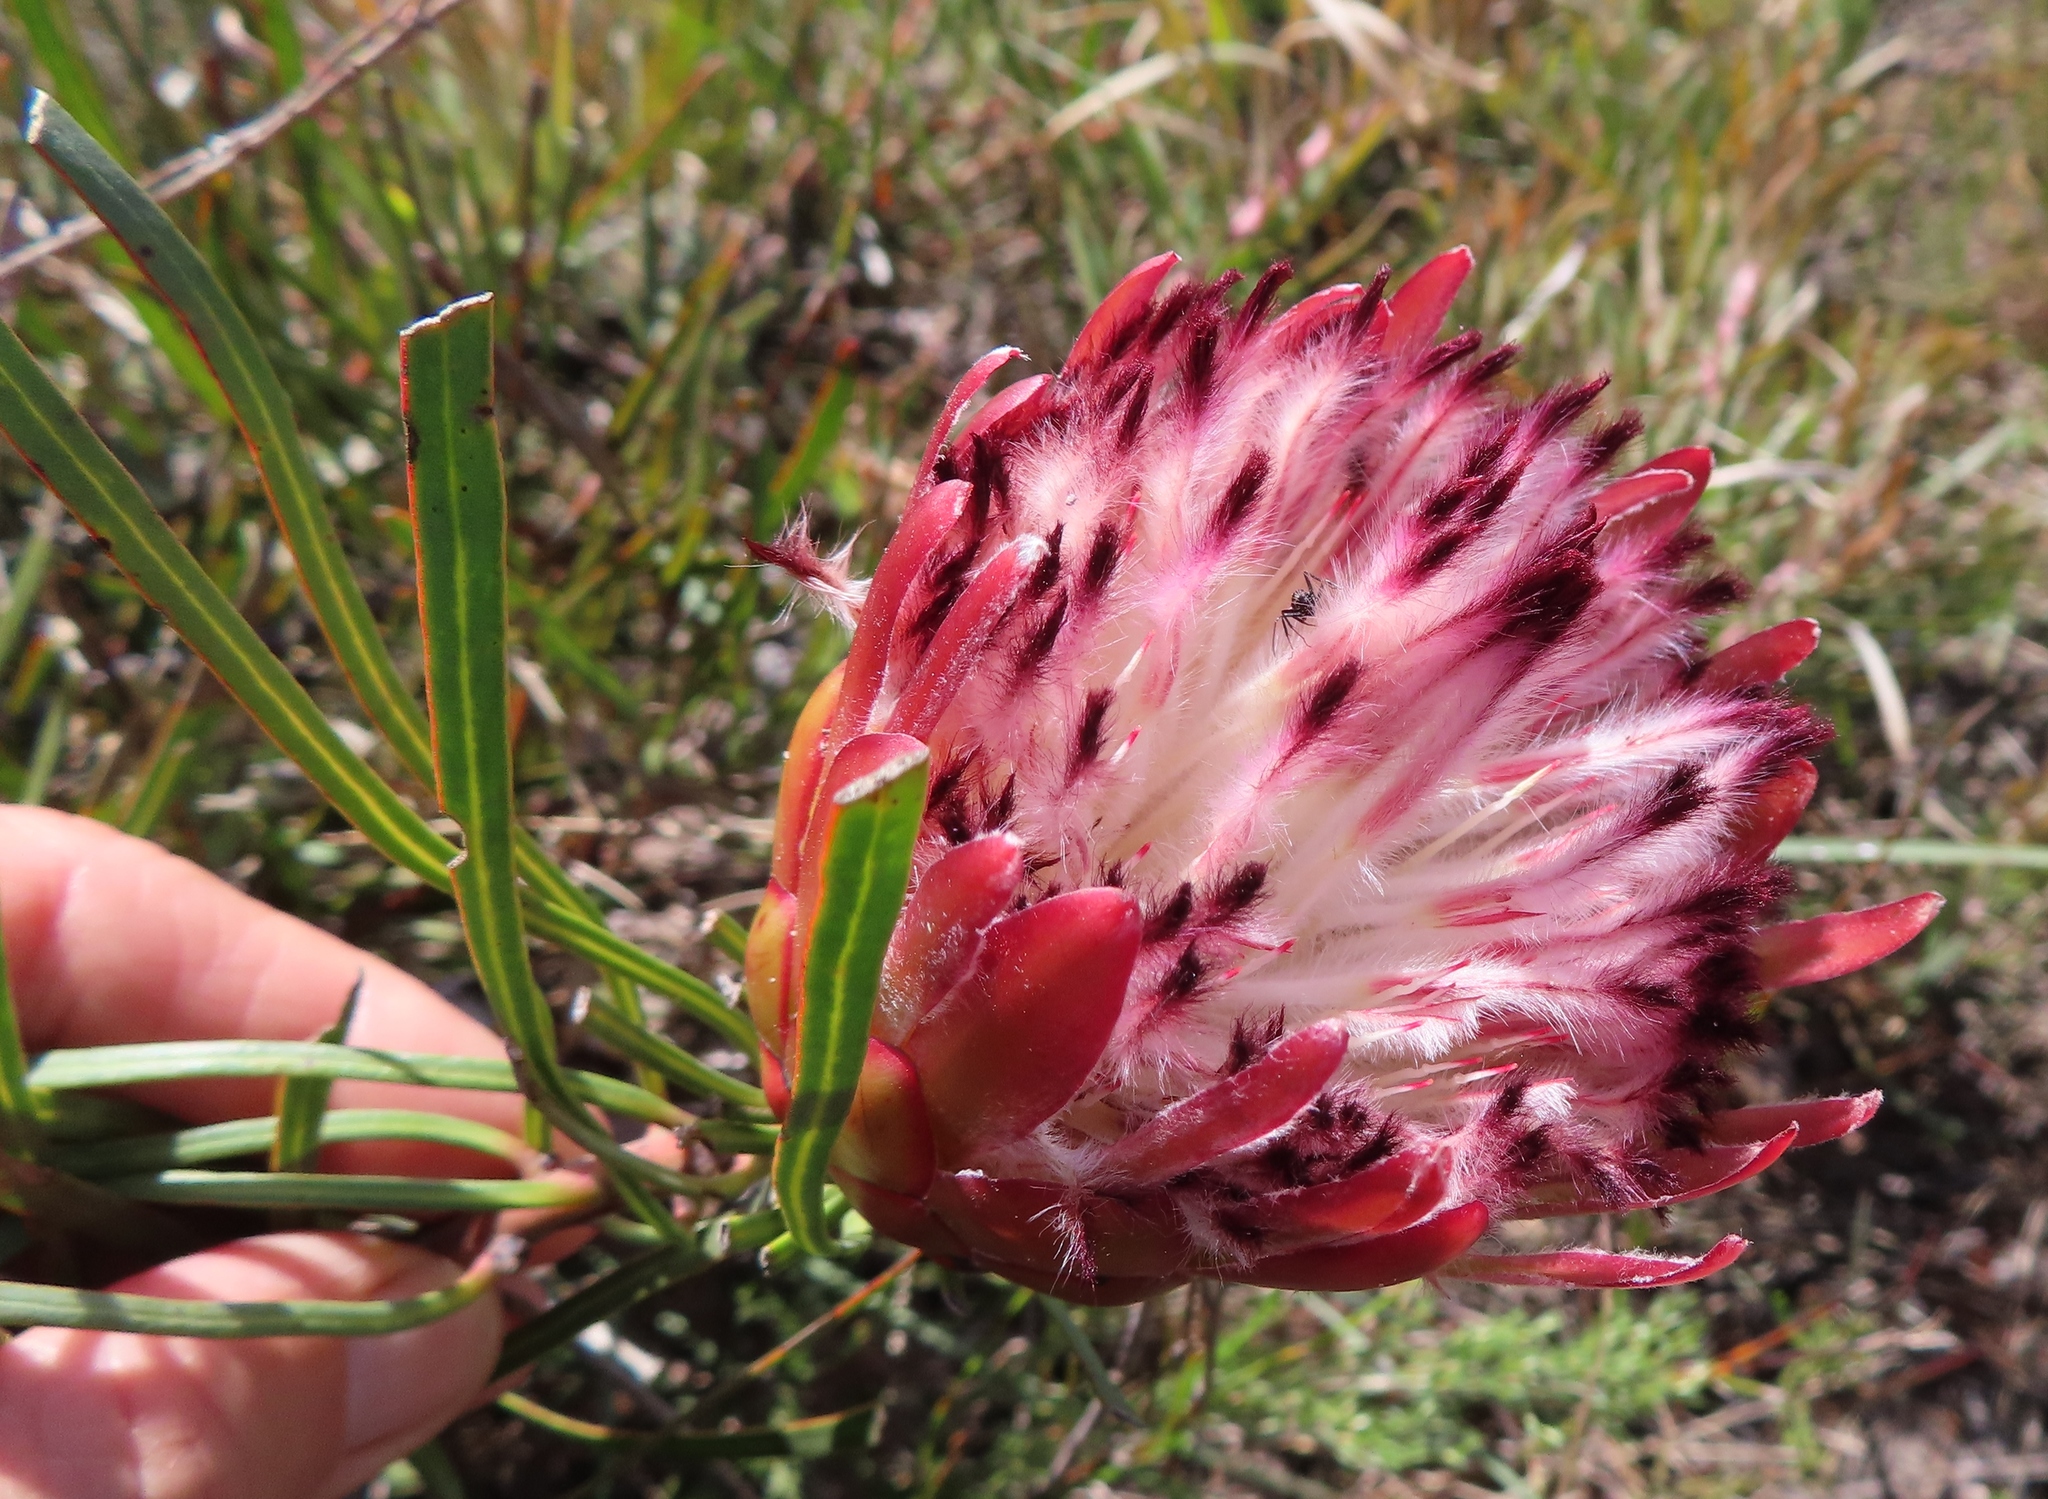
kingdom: Plantae
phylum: Tracheophyta
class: Magnoliopsida
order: Proteales
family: Proteaceae
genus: Protea
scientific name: Protea pudens
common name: Bashful sugarbush
